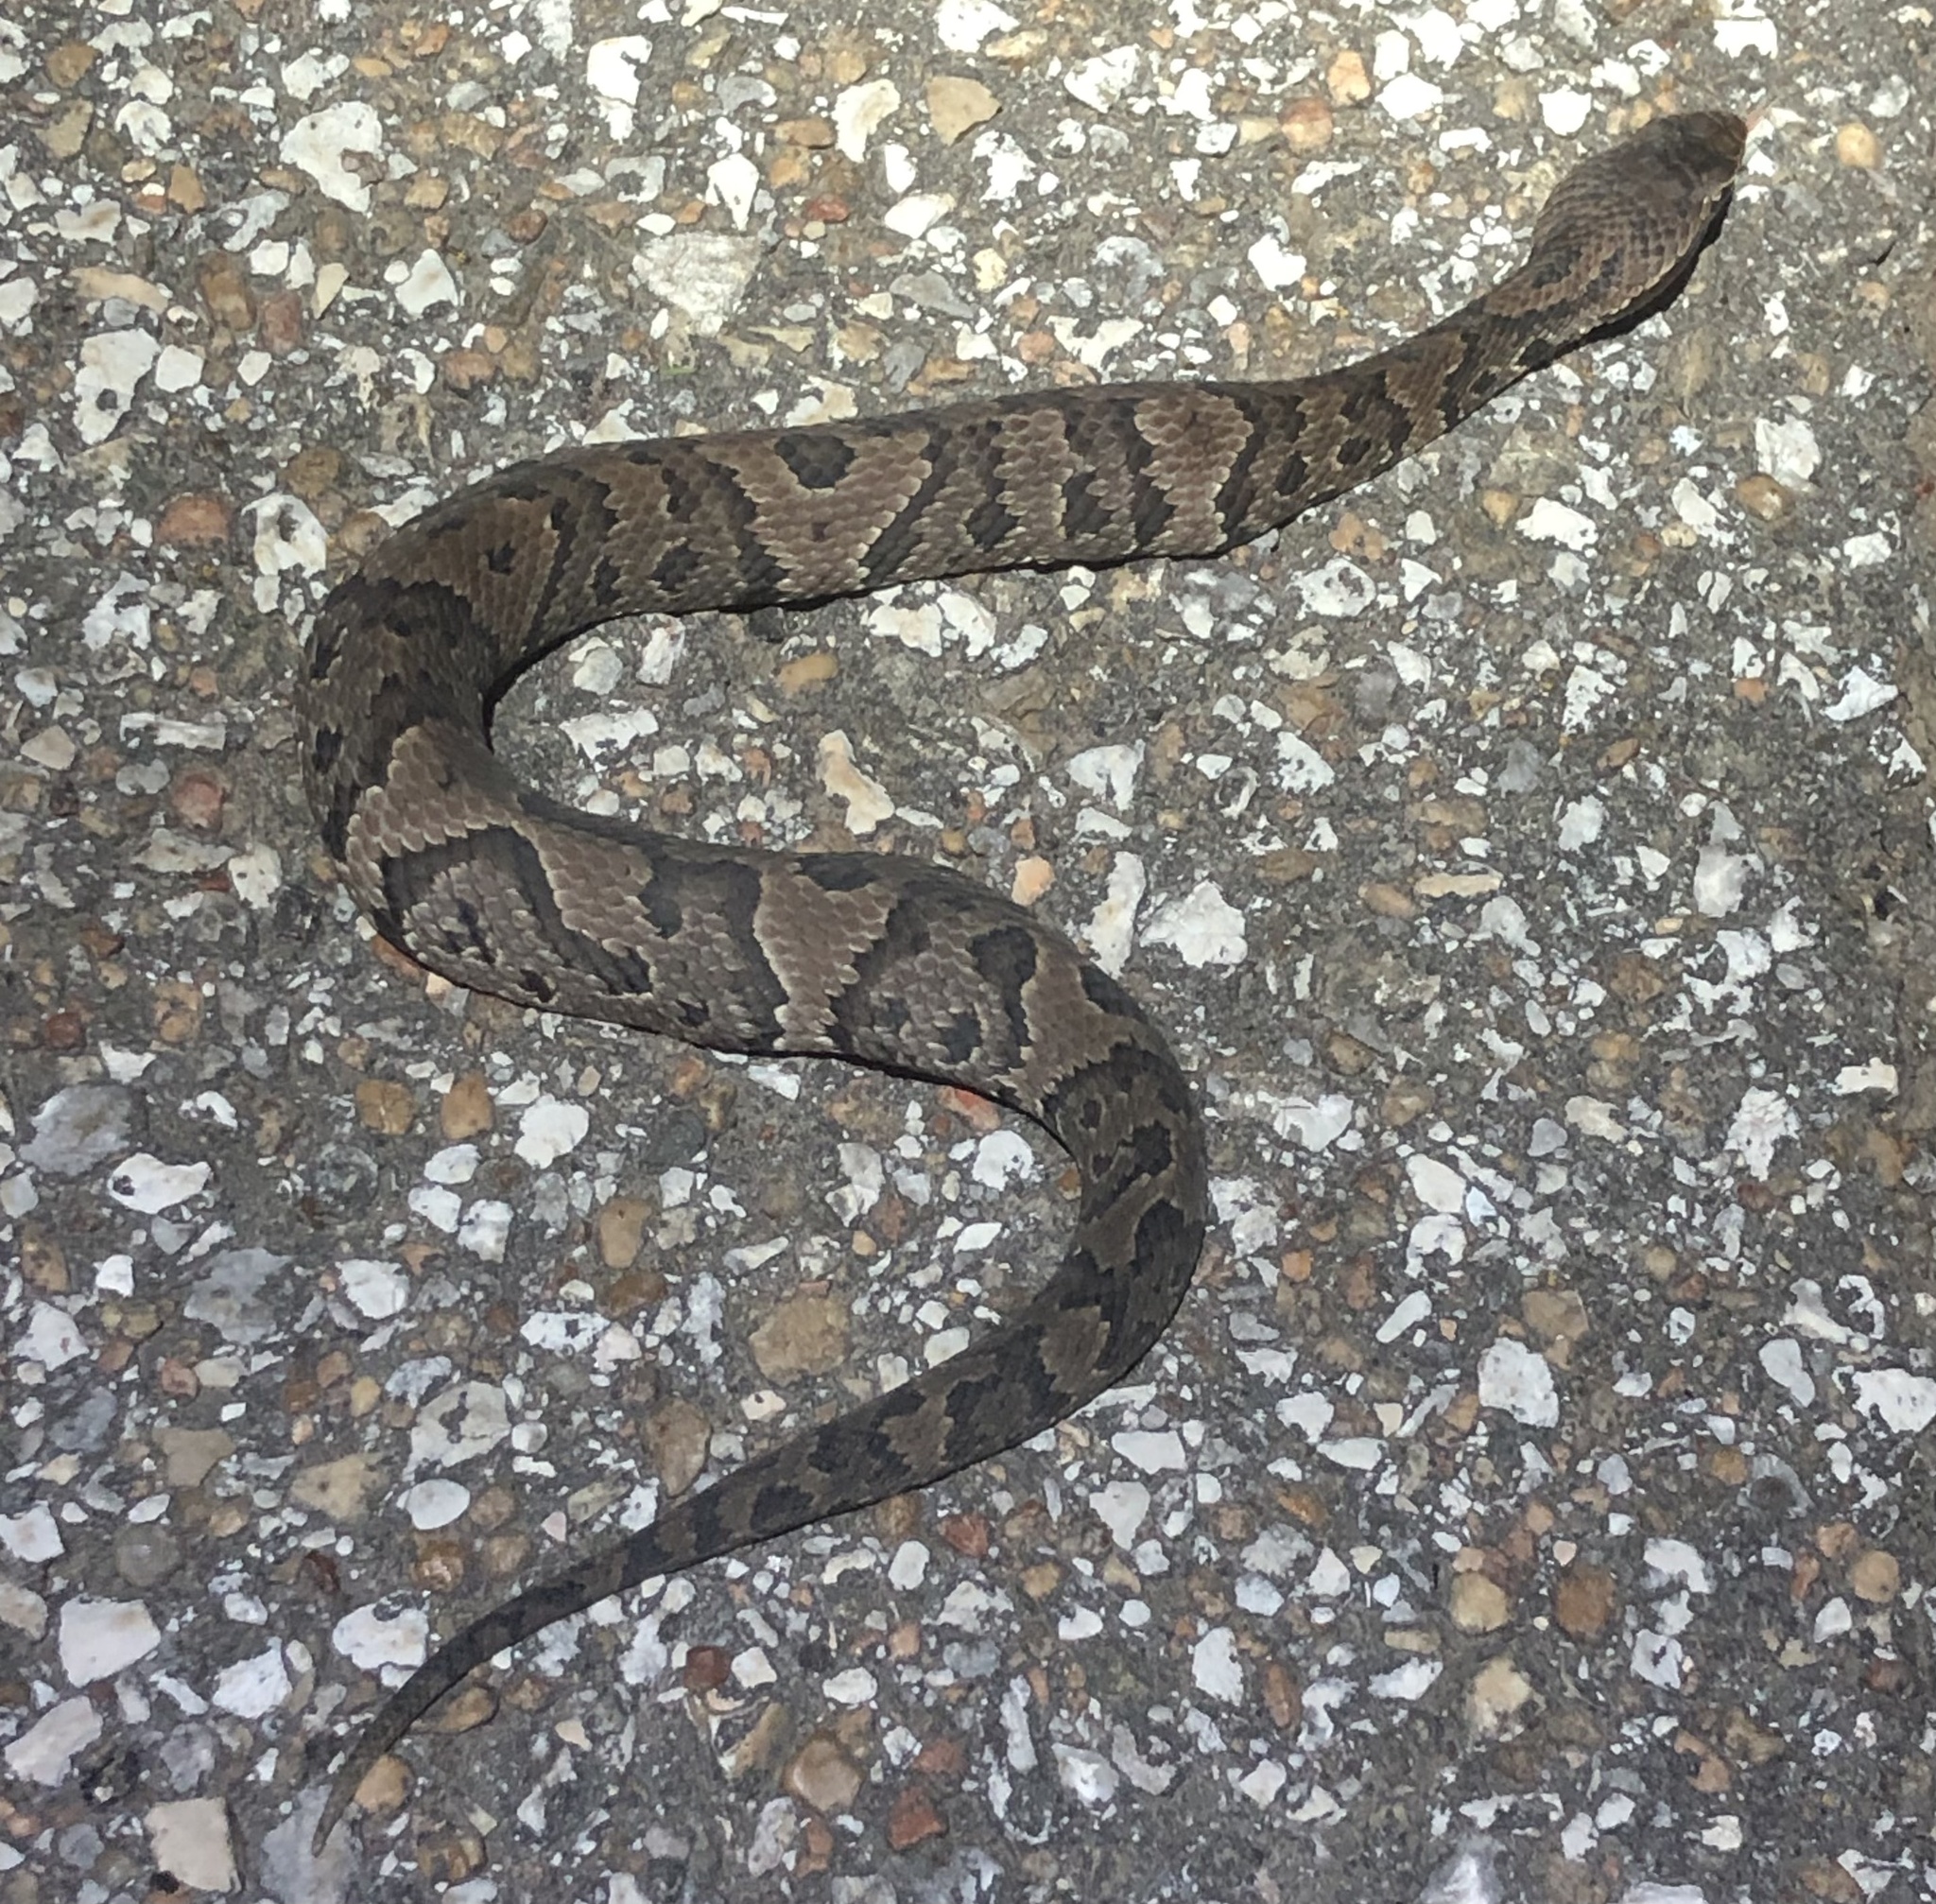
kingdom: Animalia
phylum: Chordata
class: Squamata
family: Viperidae
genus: Agkistrodon
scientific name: Agkistrodon piscivorus
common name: Cottonmouth
